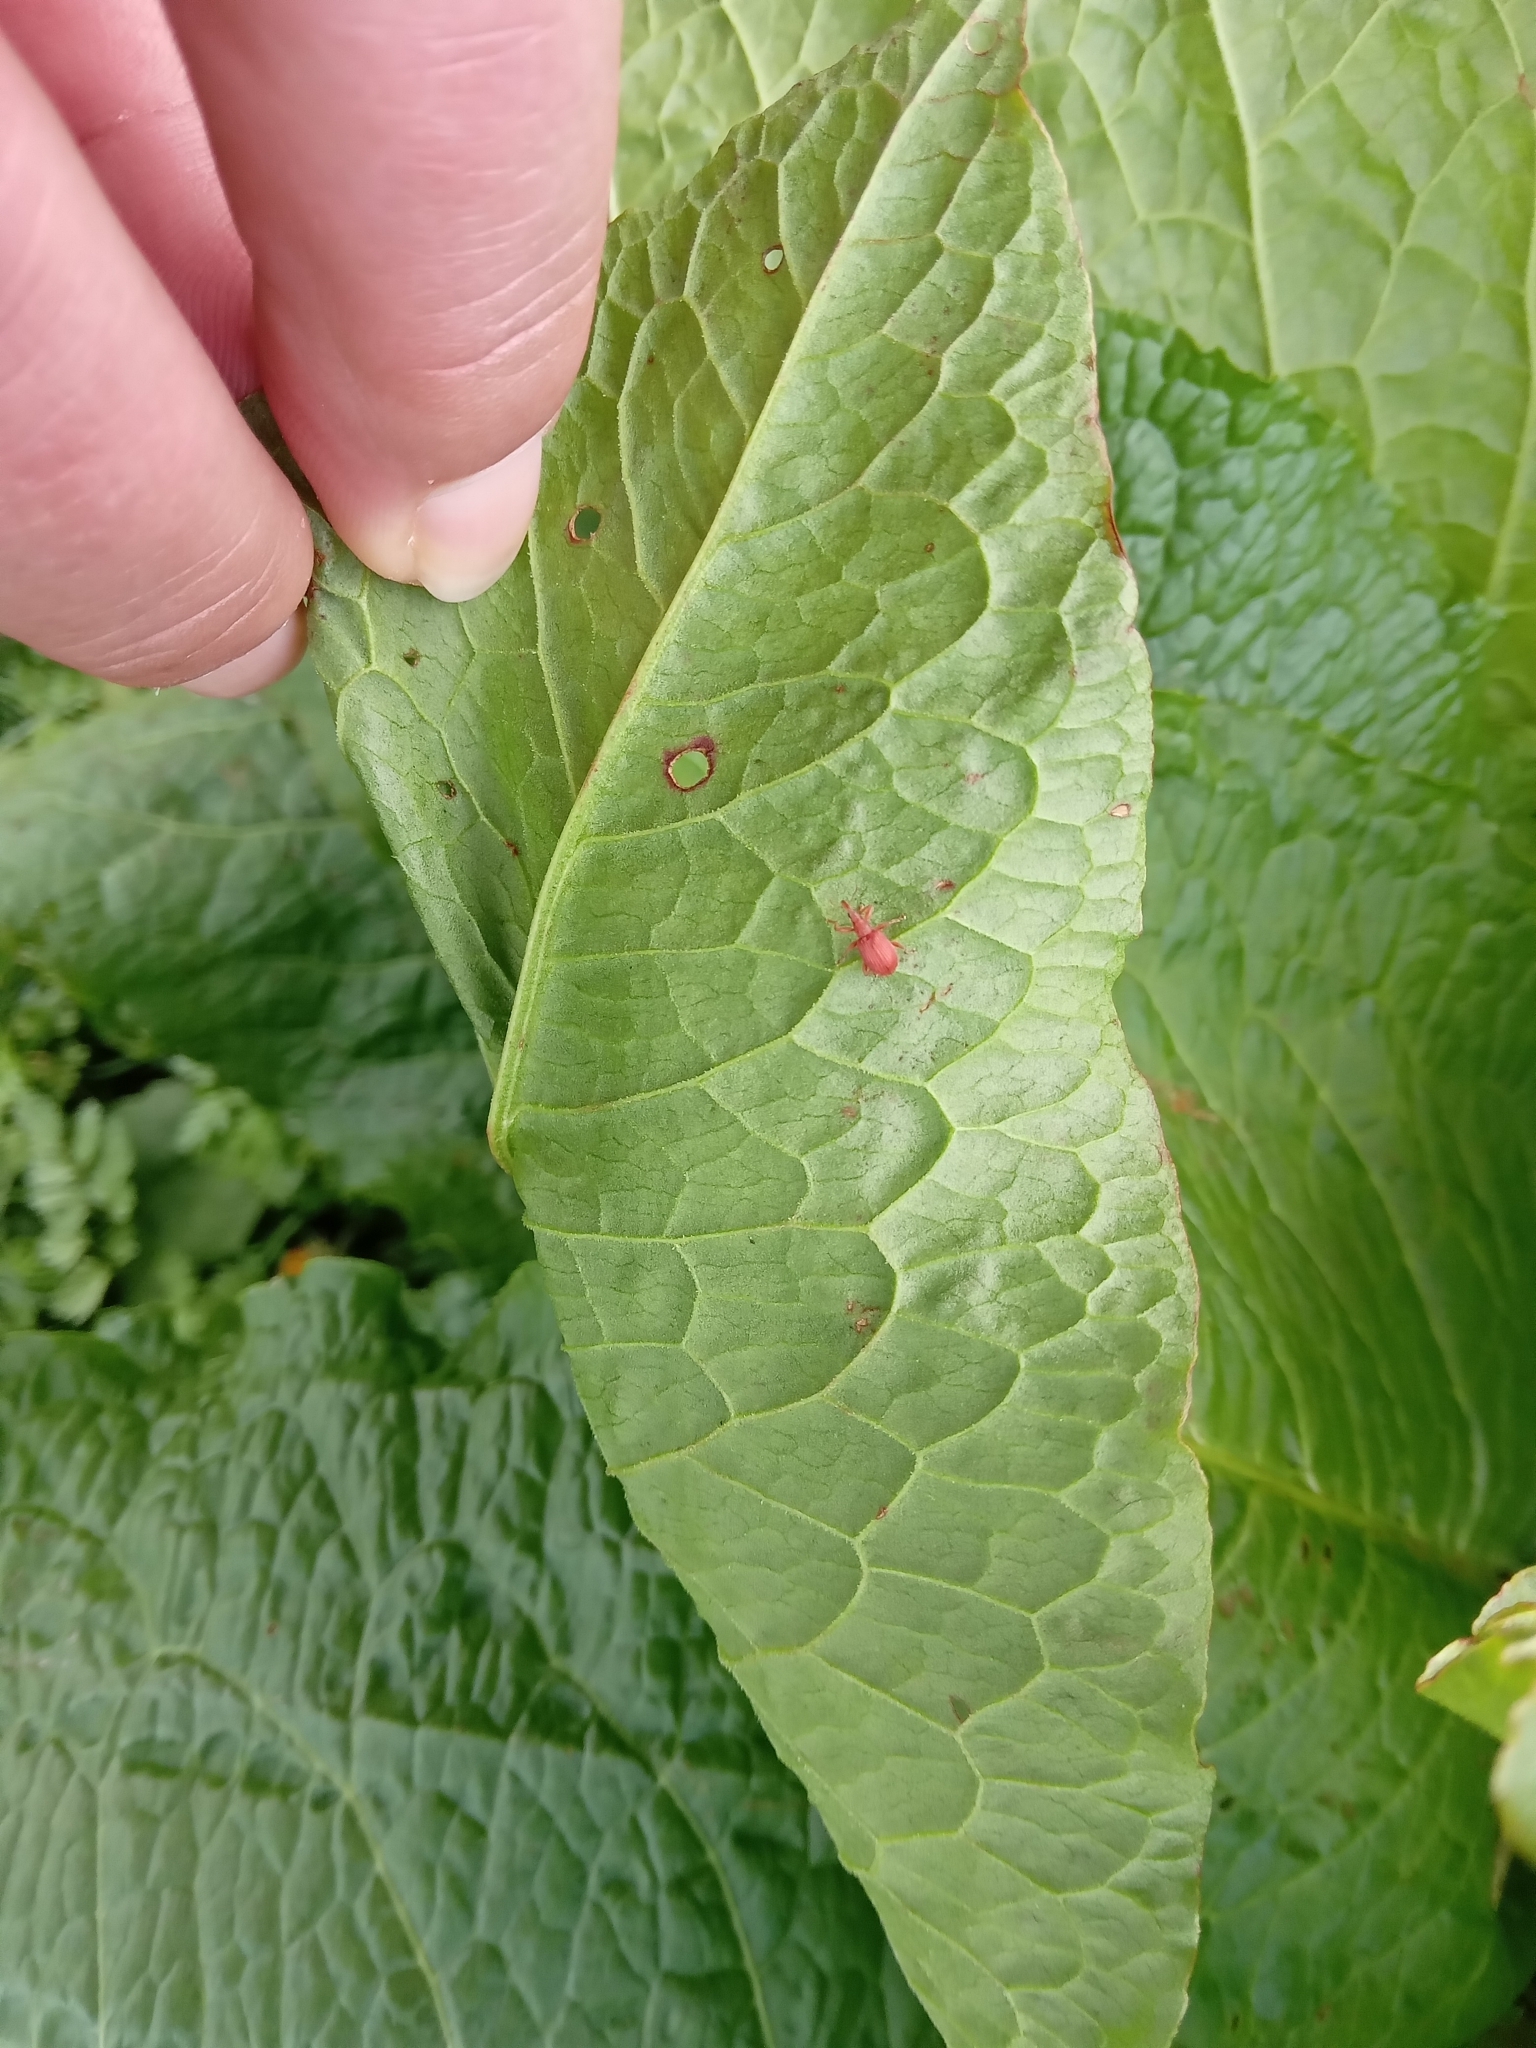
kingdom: Animalia
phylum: Arthropoda
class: Insecta
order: Coleoptera
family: Apionidae
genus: Apion
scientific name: Apion frumentarium
